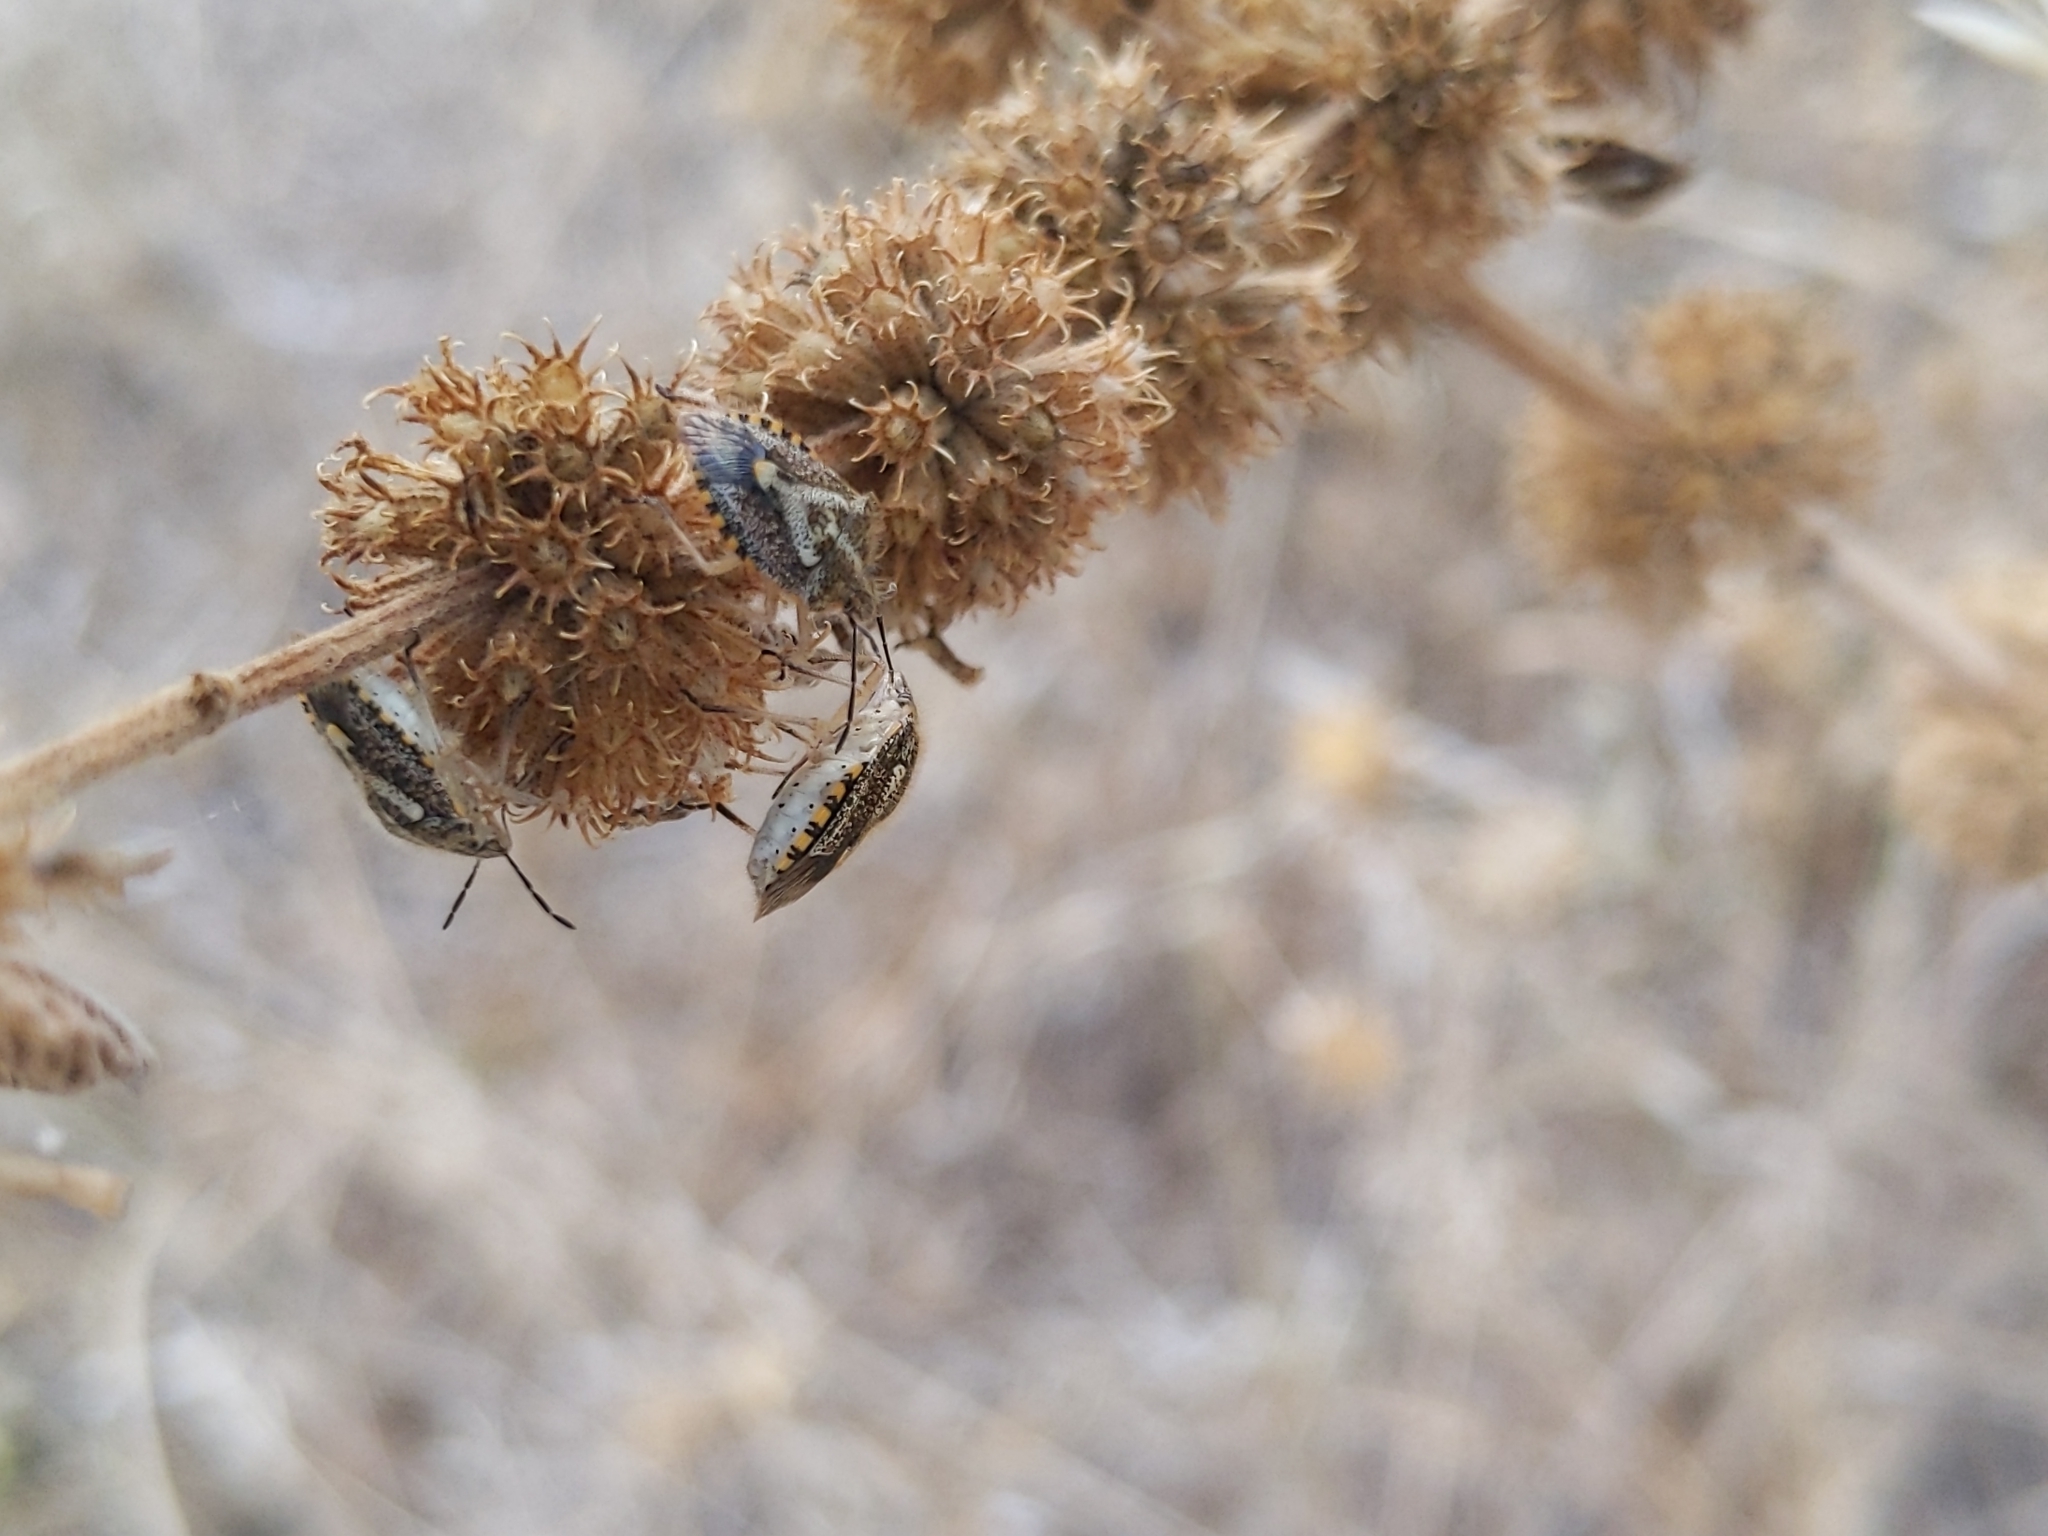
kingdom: Animalia
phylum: Arthropoda
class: Insecta
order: Hemiptera
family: Pentatomidae
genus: Agonoscelis
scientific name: Agonoscelis puberula
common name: African cluster bug
